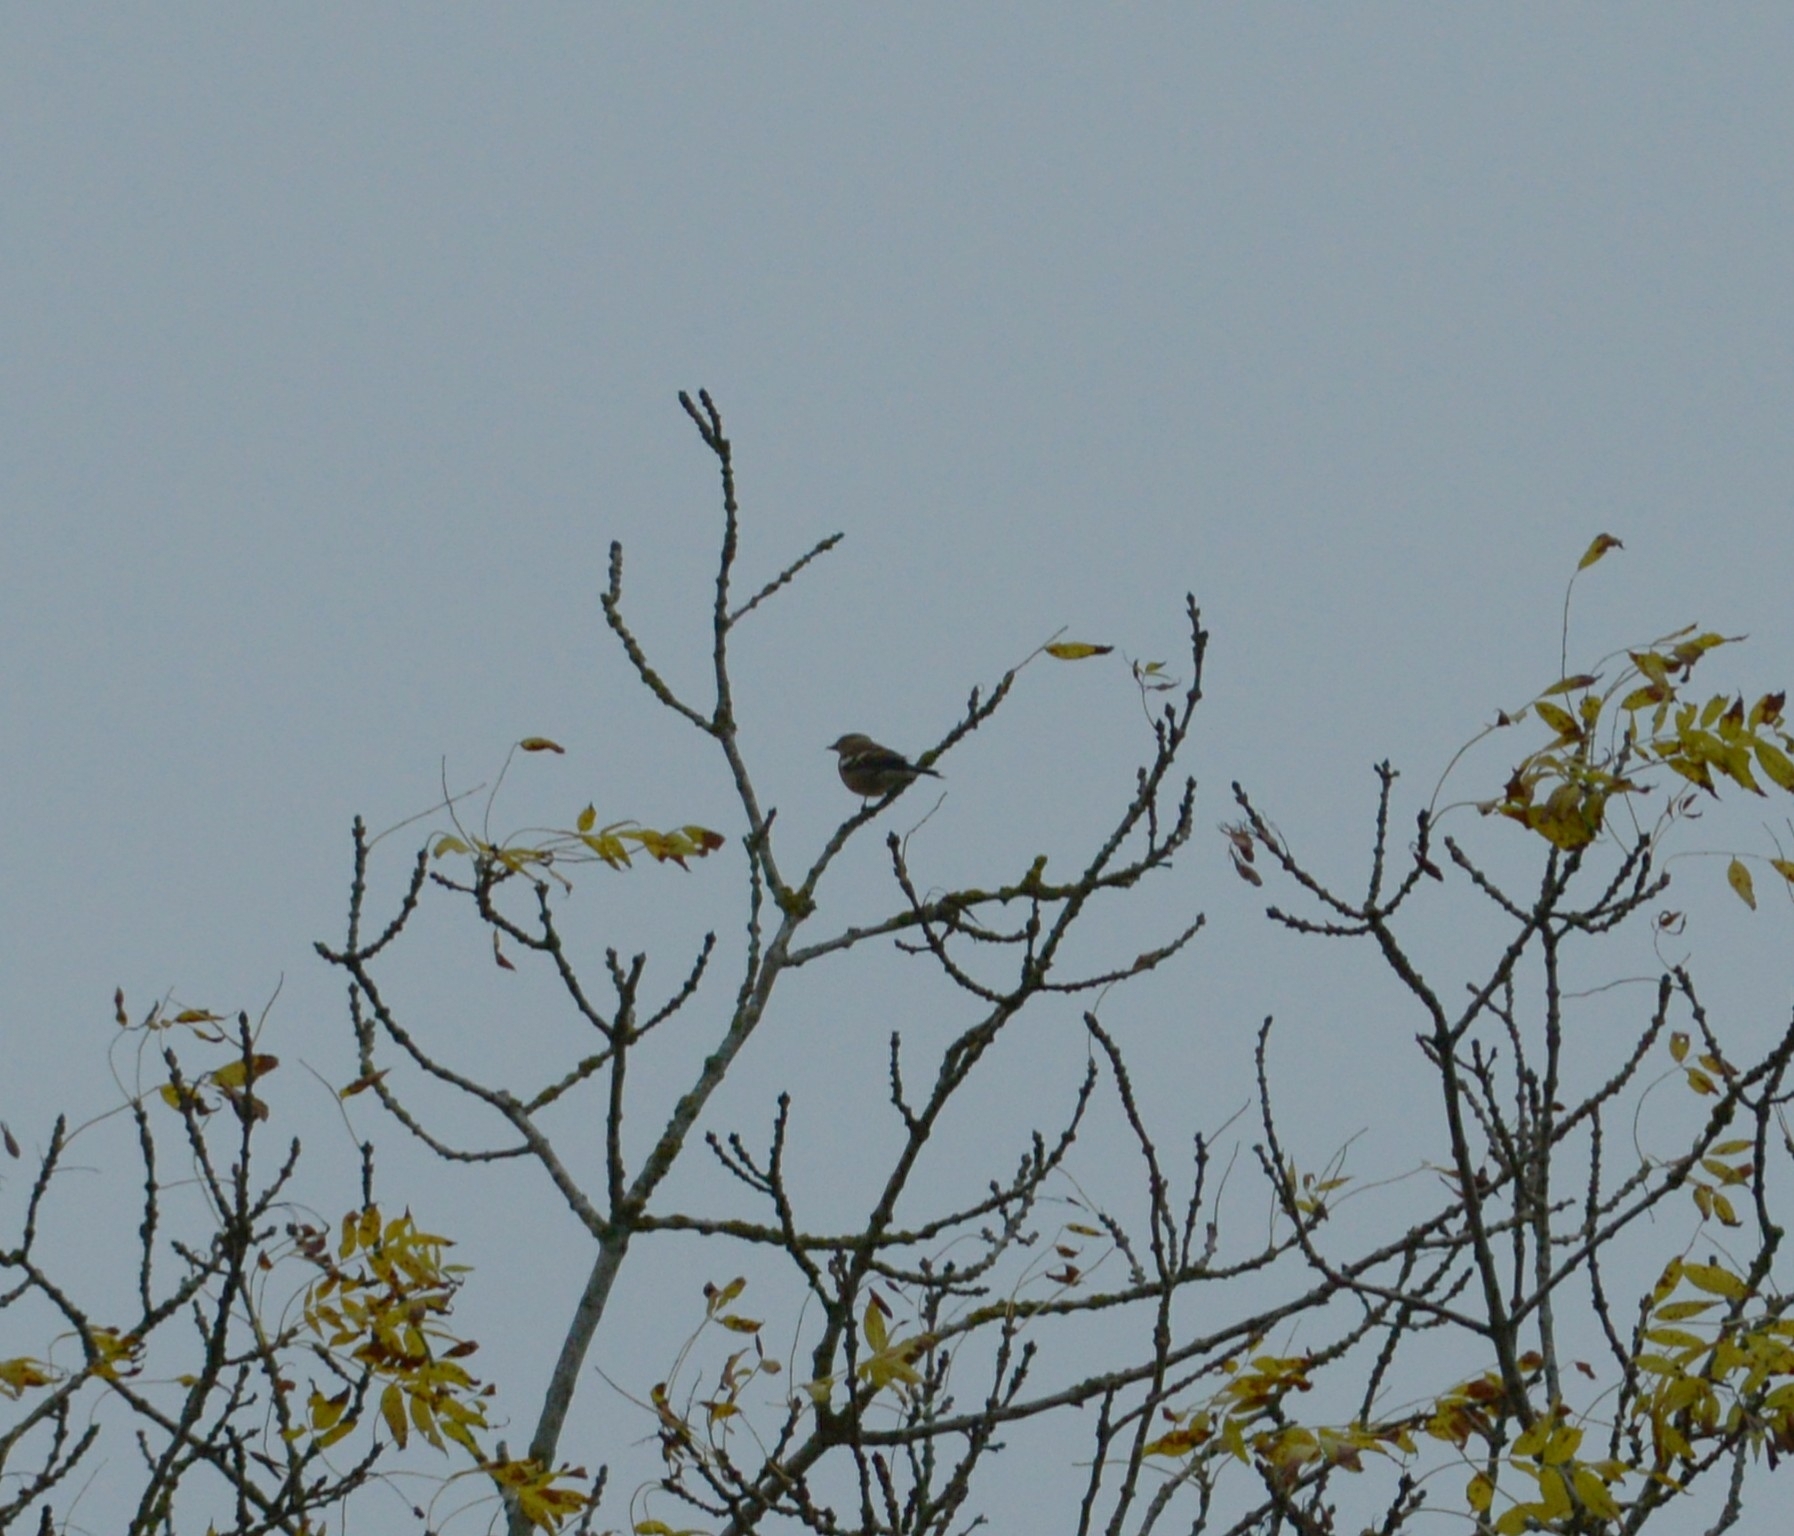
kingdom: Animalia
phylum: Chordata
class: Aves
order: Passeriformes
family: Fringillidae
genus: Fringilla
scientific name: Fringilla coelebs
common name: Common chaffinch
